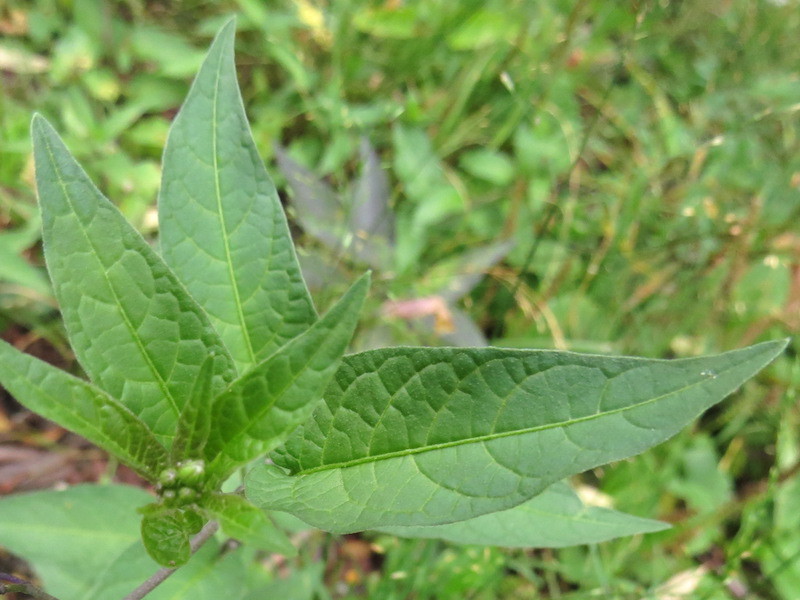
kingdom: Plantae
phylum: Tracheophyta
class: Magnoliopsida
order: Solanales
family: Solanaceae
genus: Solanum
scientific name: Solanum dulcamara
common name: Climbing nightshade
